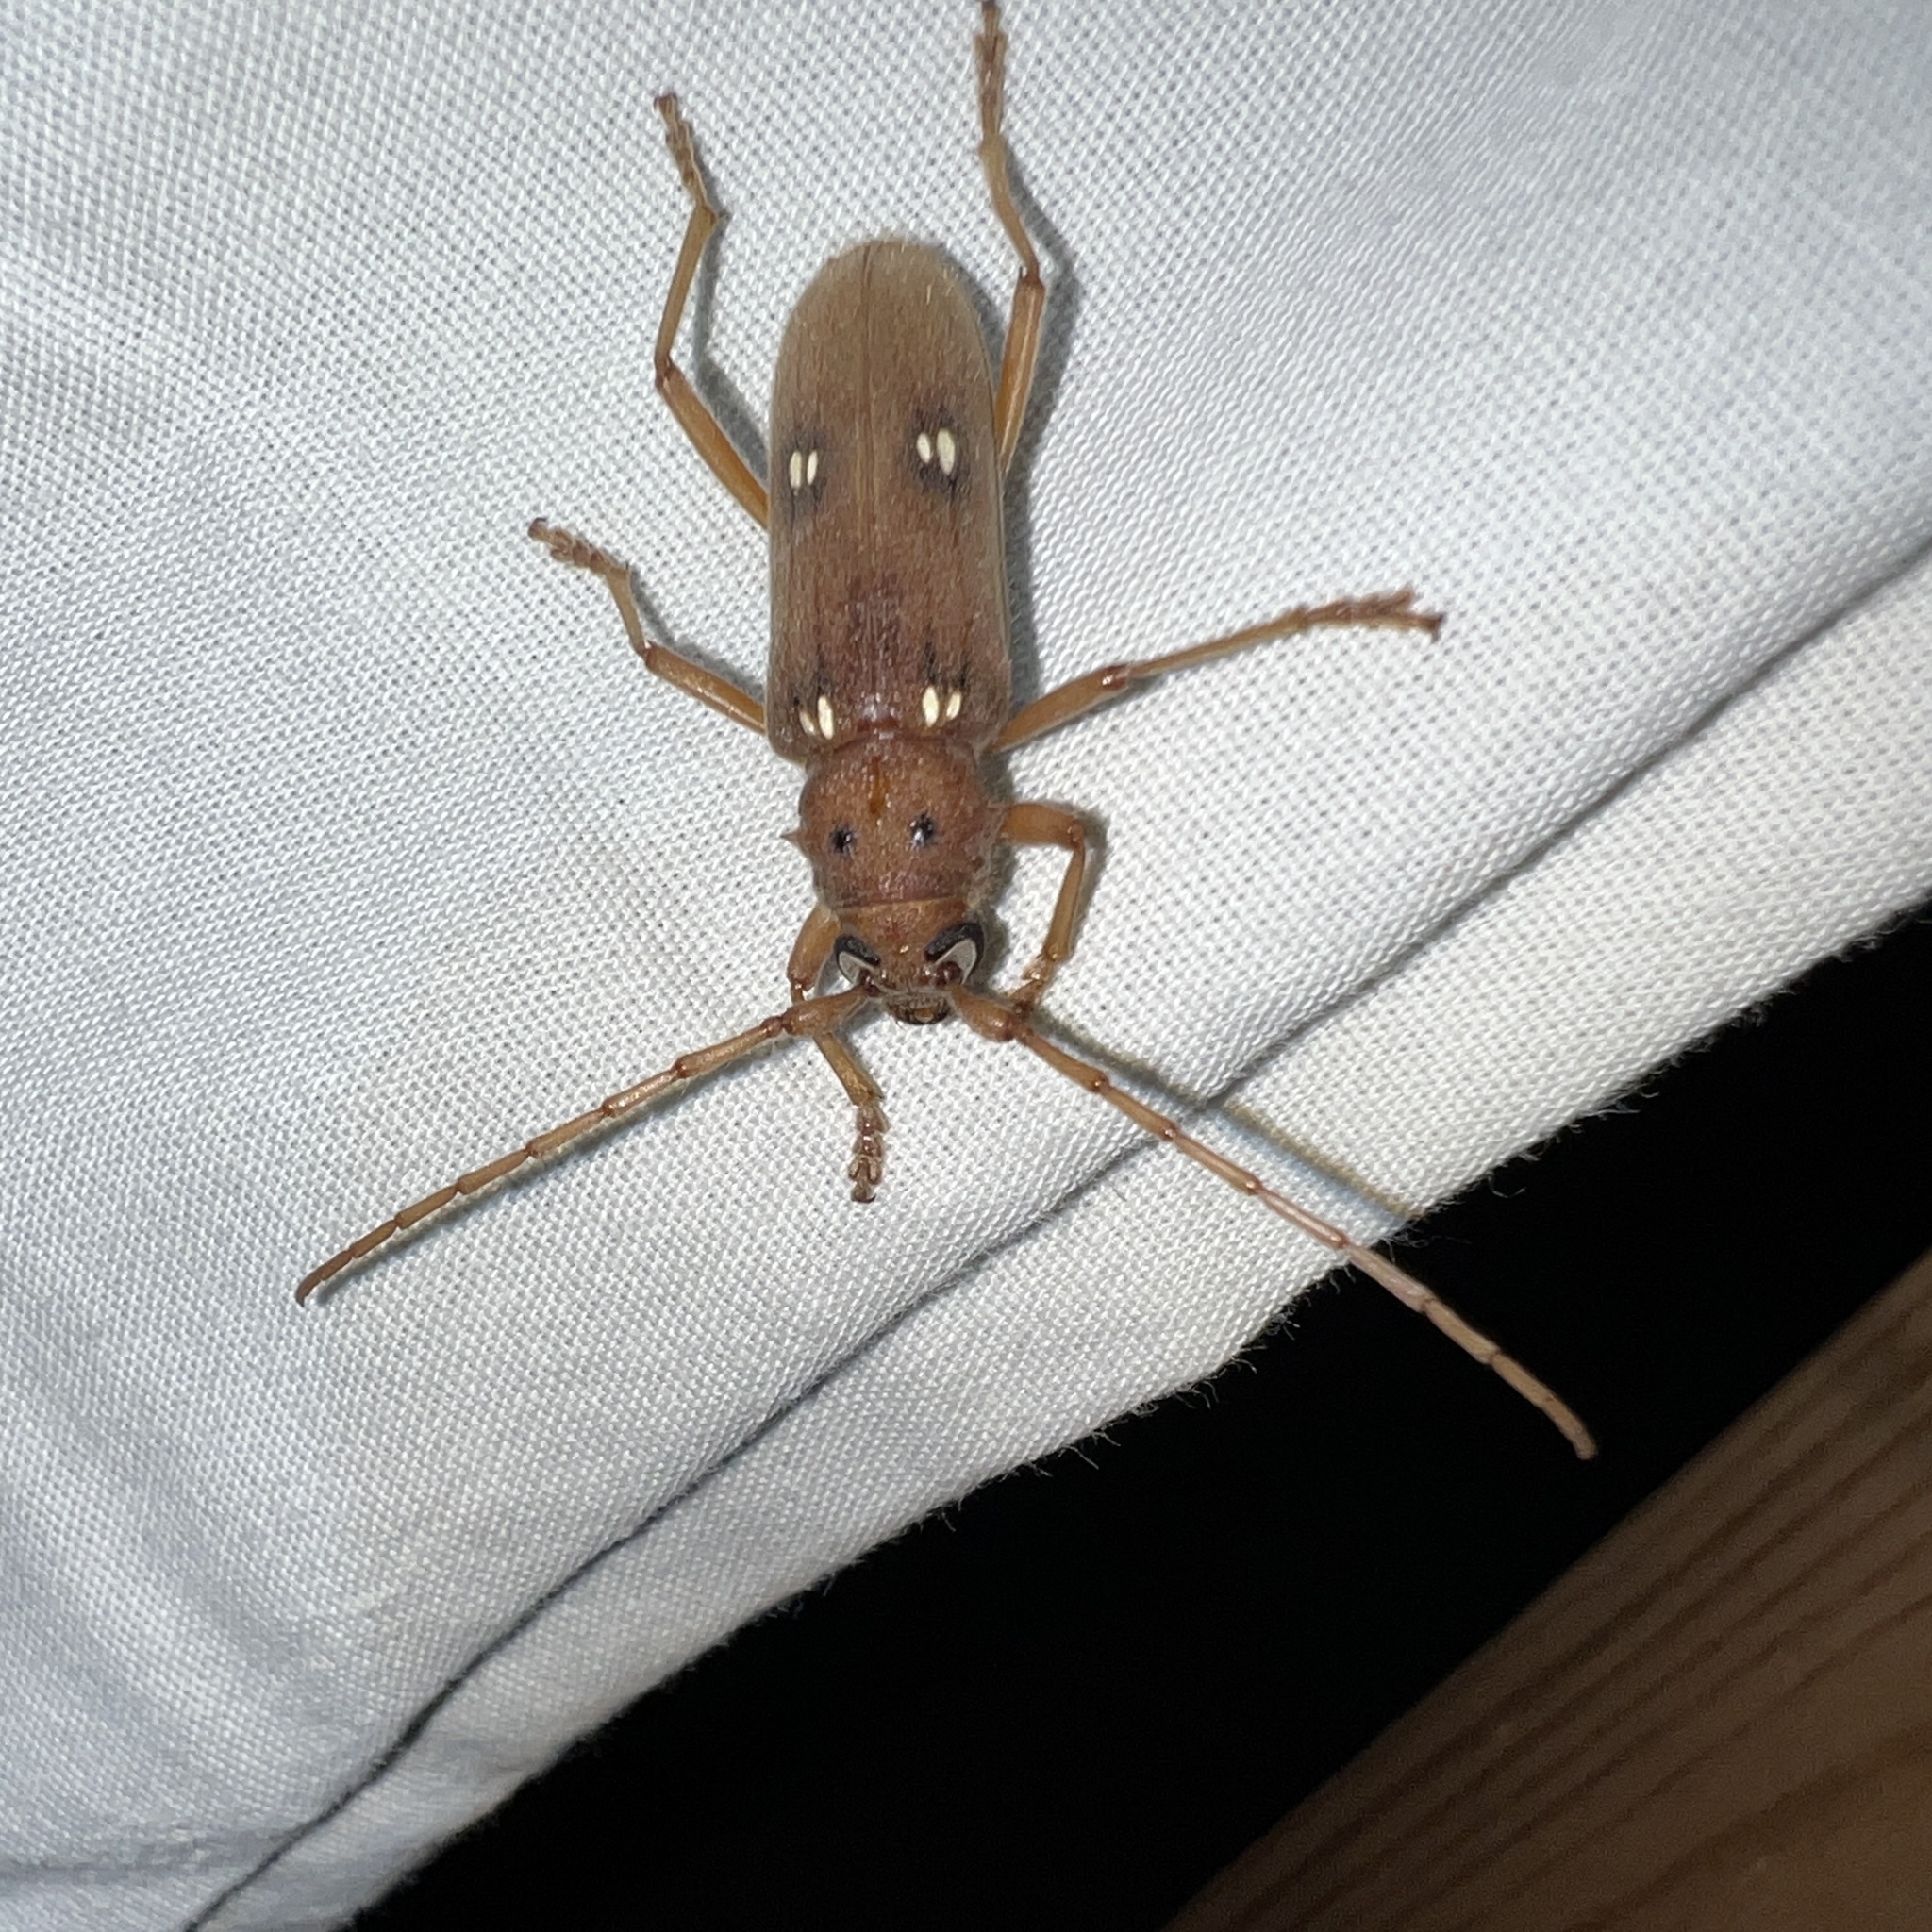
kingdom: Animalia
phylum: Arthropoda
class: Insecta
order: Coleoptera
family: Cerambycidae
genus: Eburia
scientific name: Eburia haldemani
